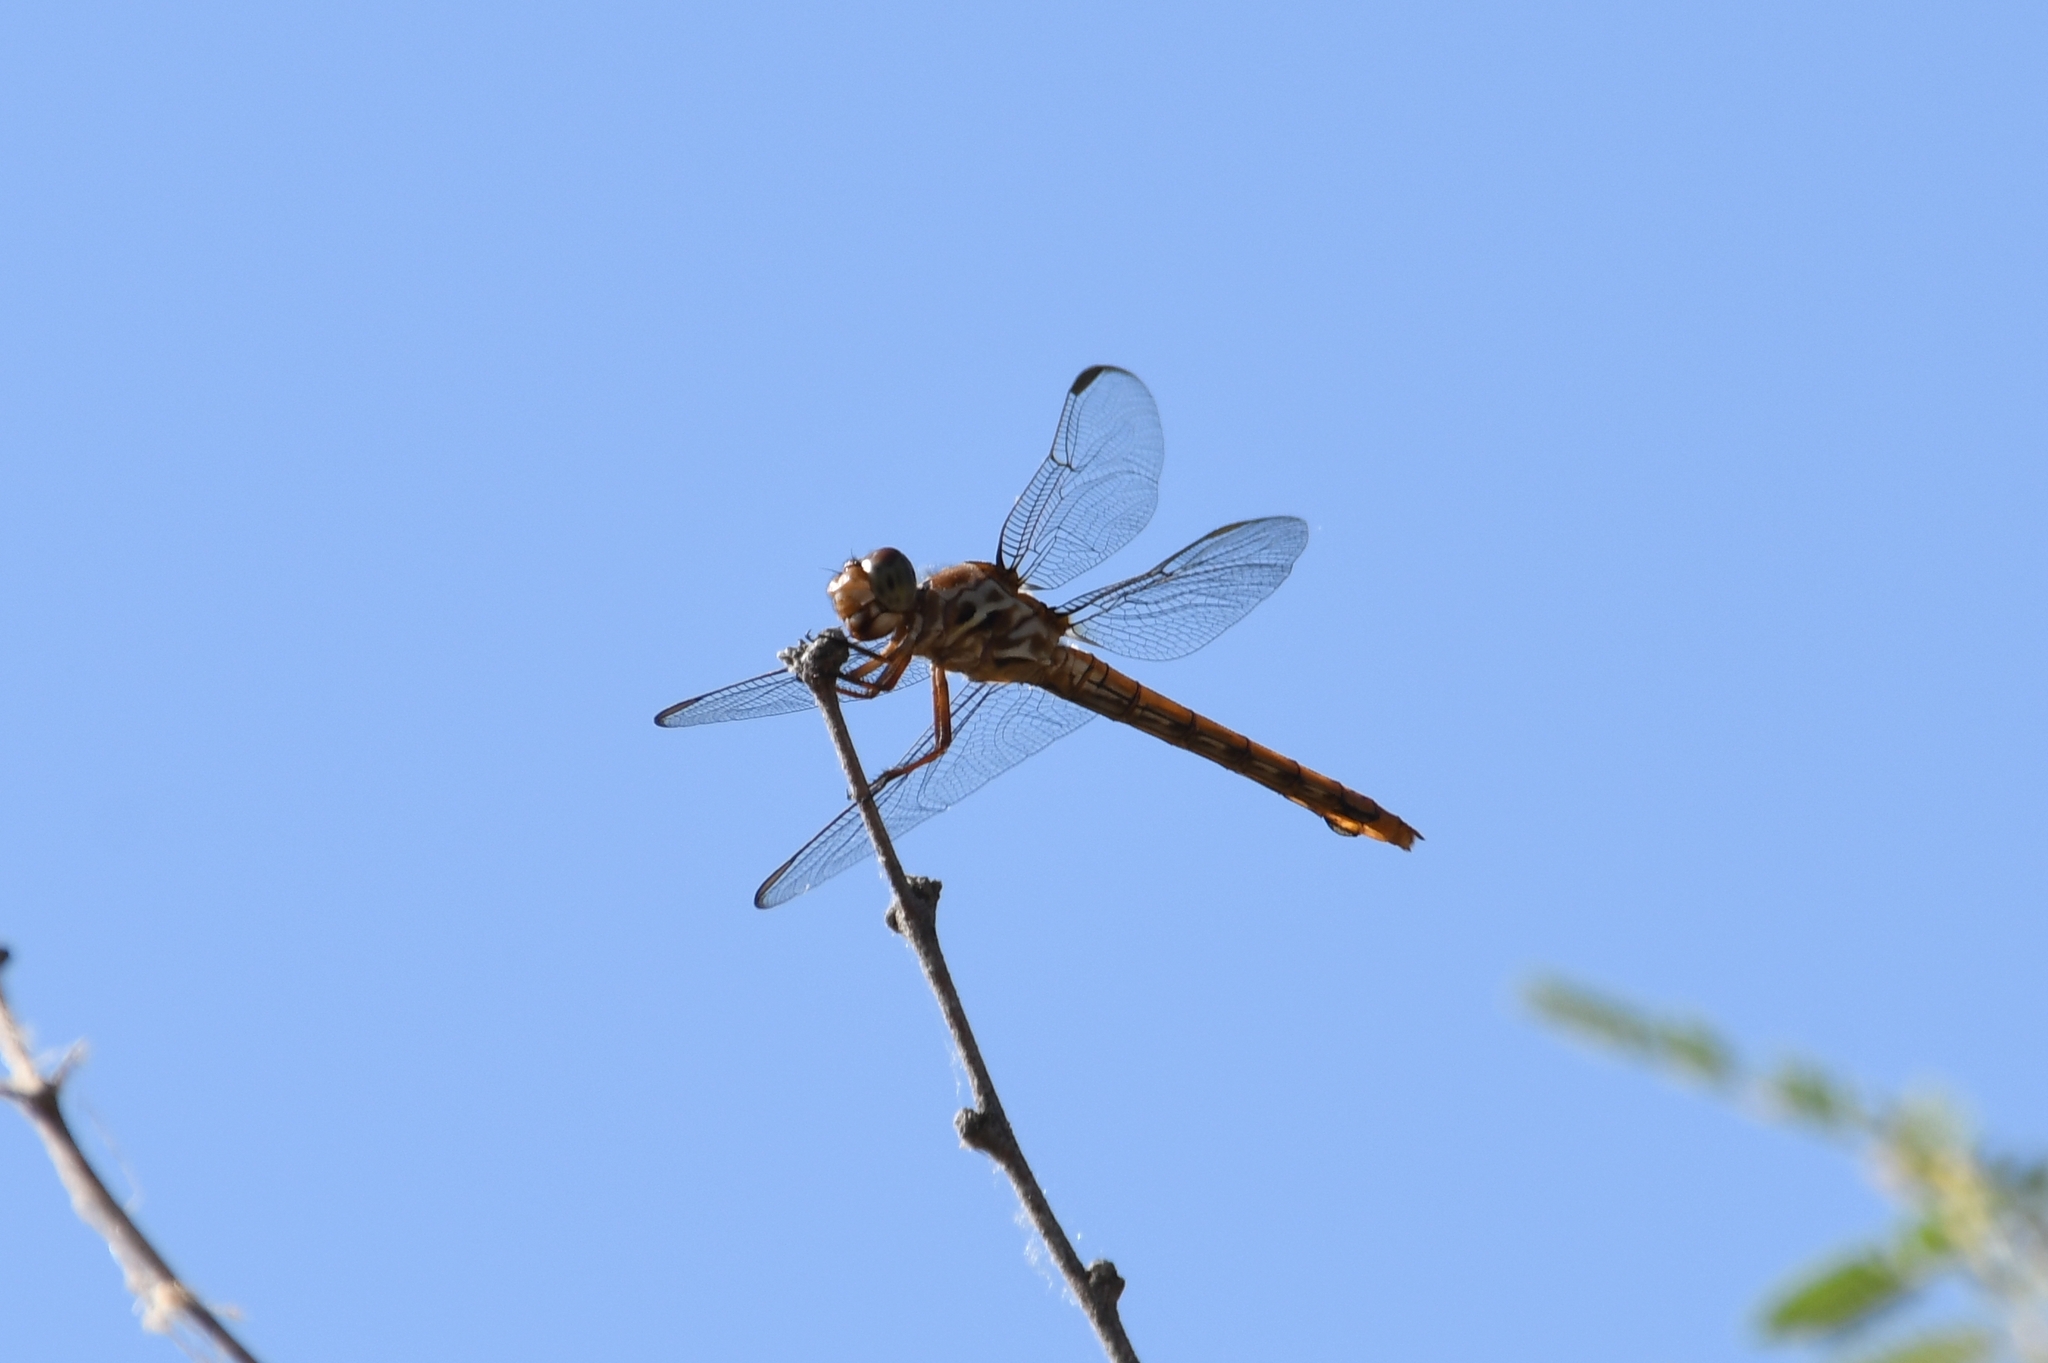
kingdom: Animalia
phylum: Arthropoda
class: Insecta
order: Odonata
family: Libellulidae
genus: Orthemis
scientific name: Orthemis ferruginea
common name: Roseate skimmer
